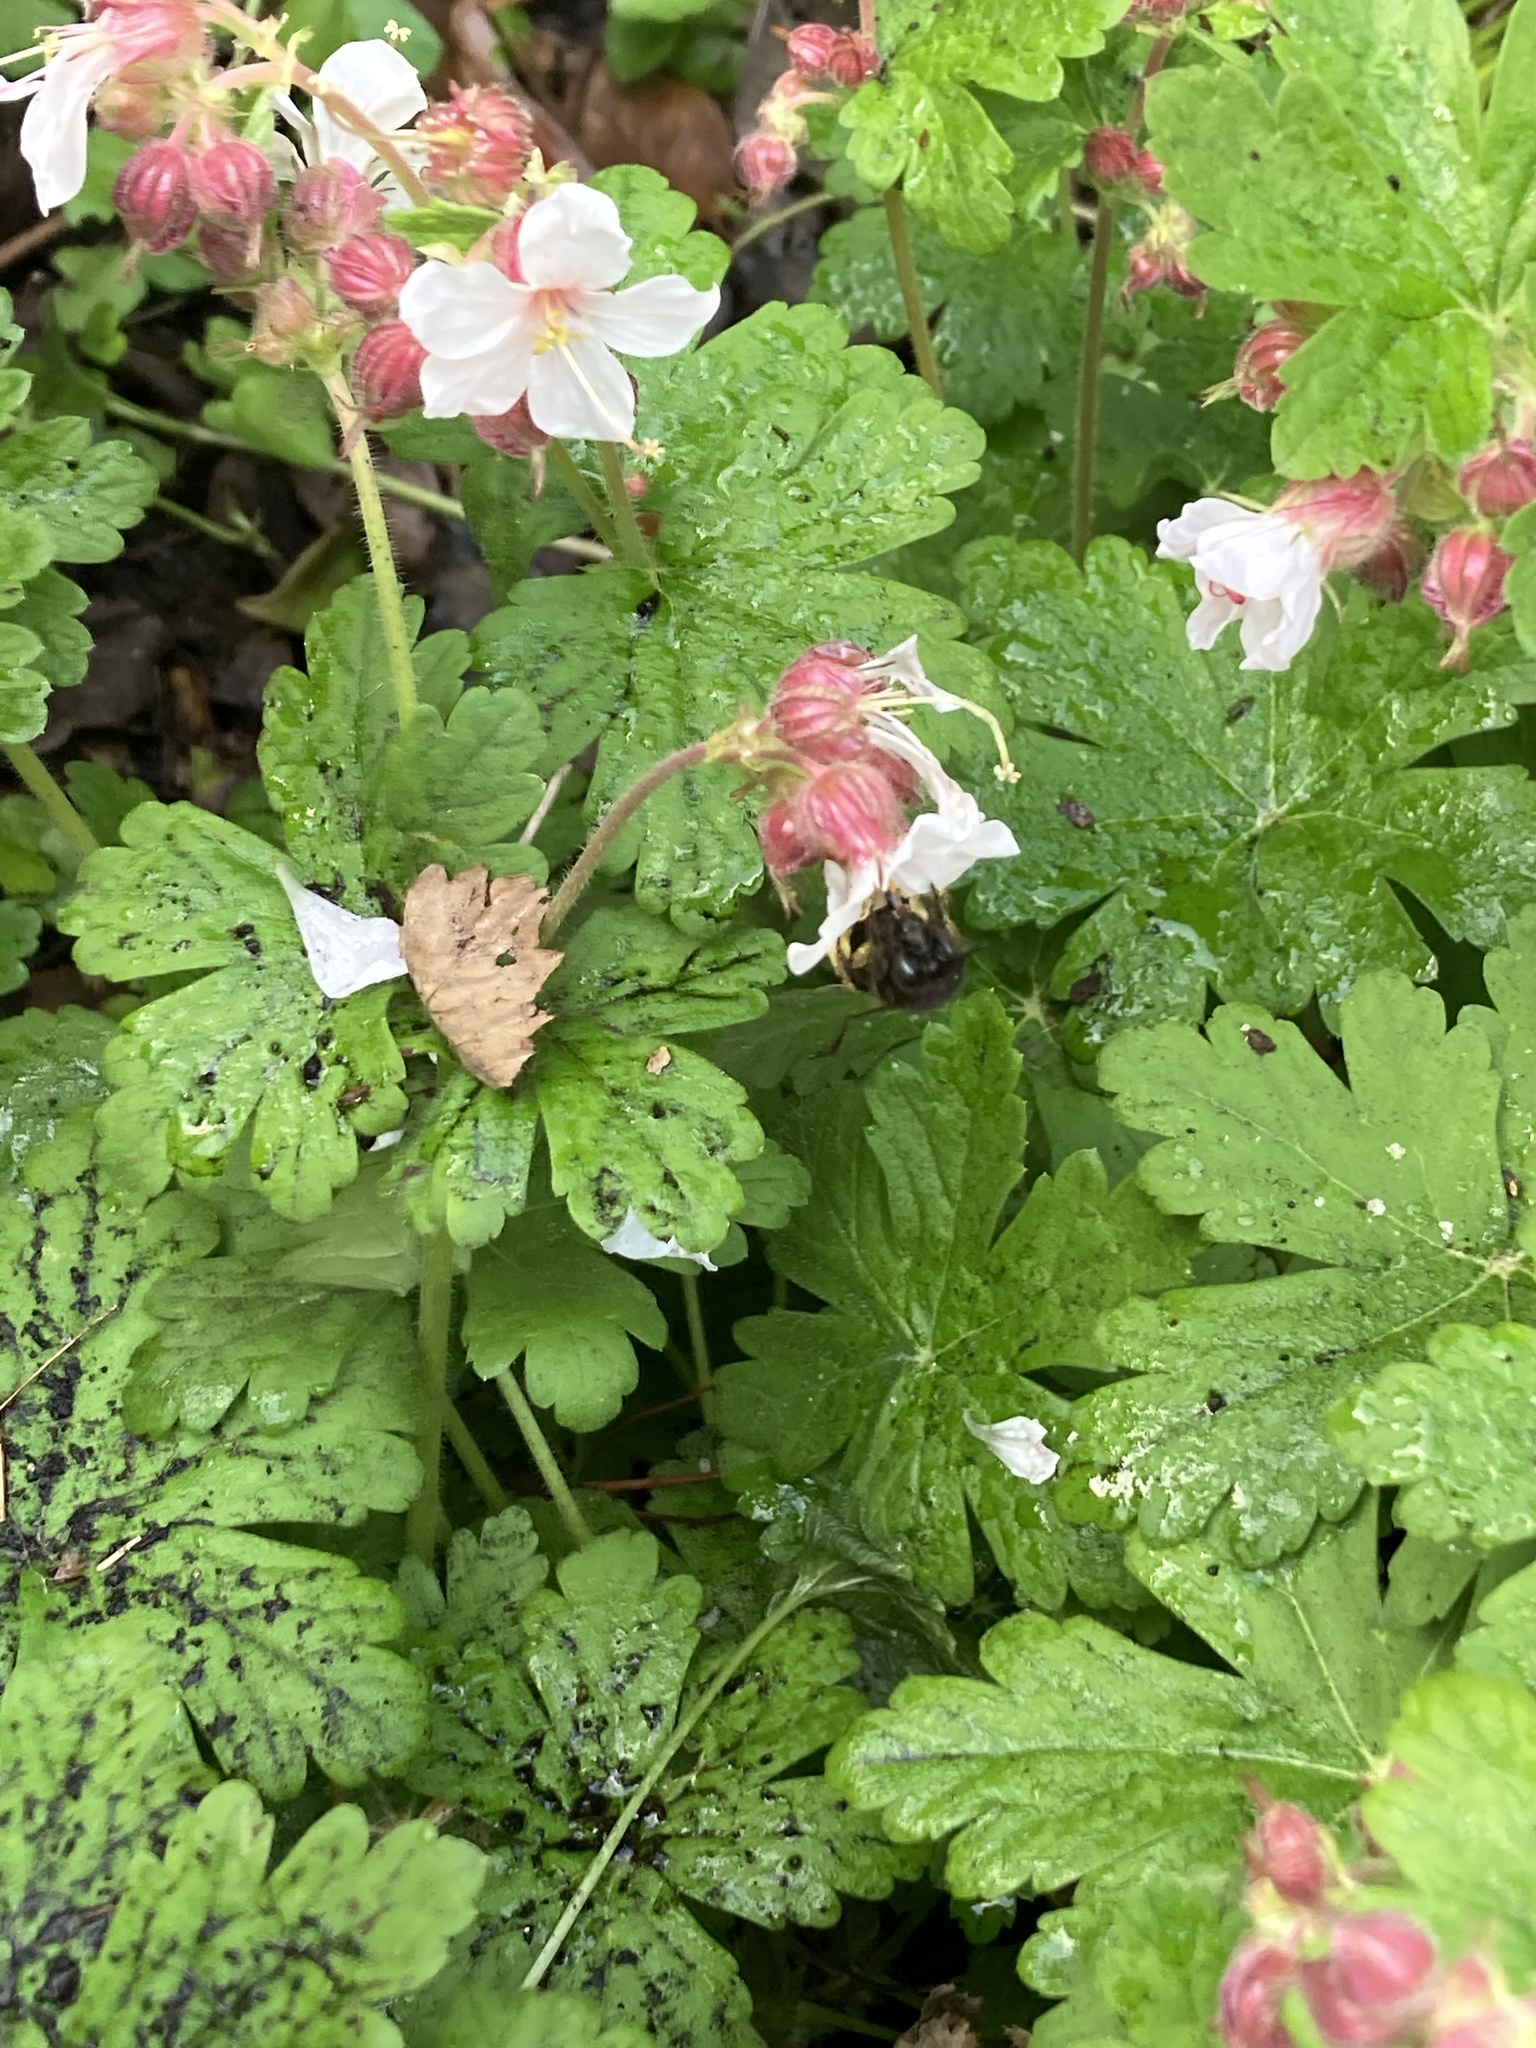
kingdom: Animalia
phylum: Arthropoda
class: Insecta
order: Hymenoptera
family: Apidae
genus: Anthophora
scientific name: Anthophora plumipes
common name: Hairy-footed flower bee
